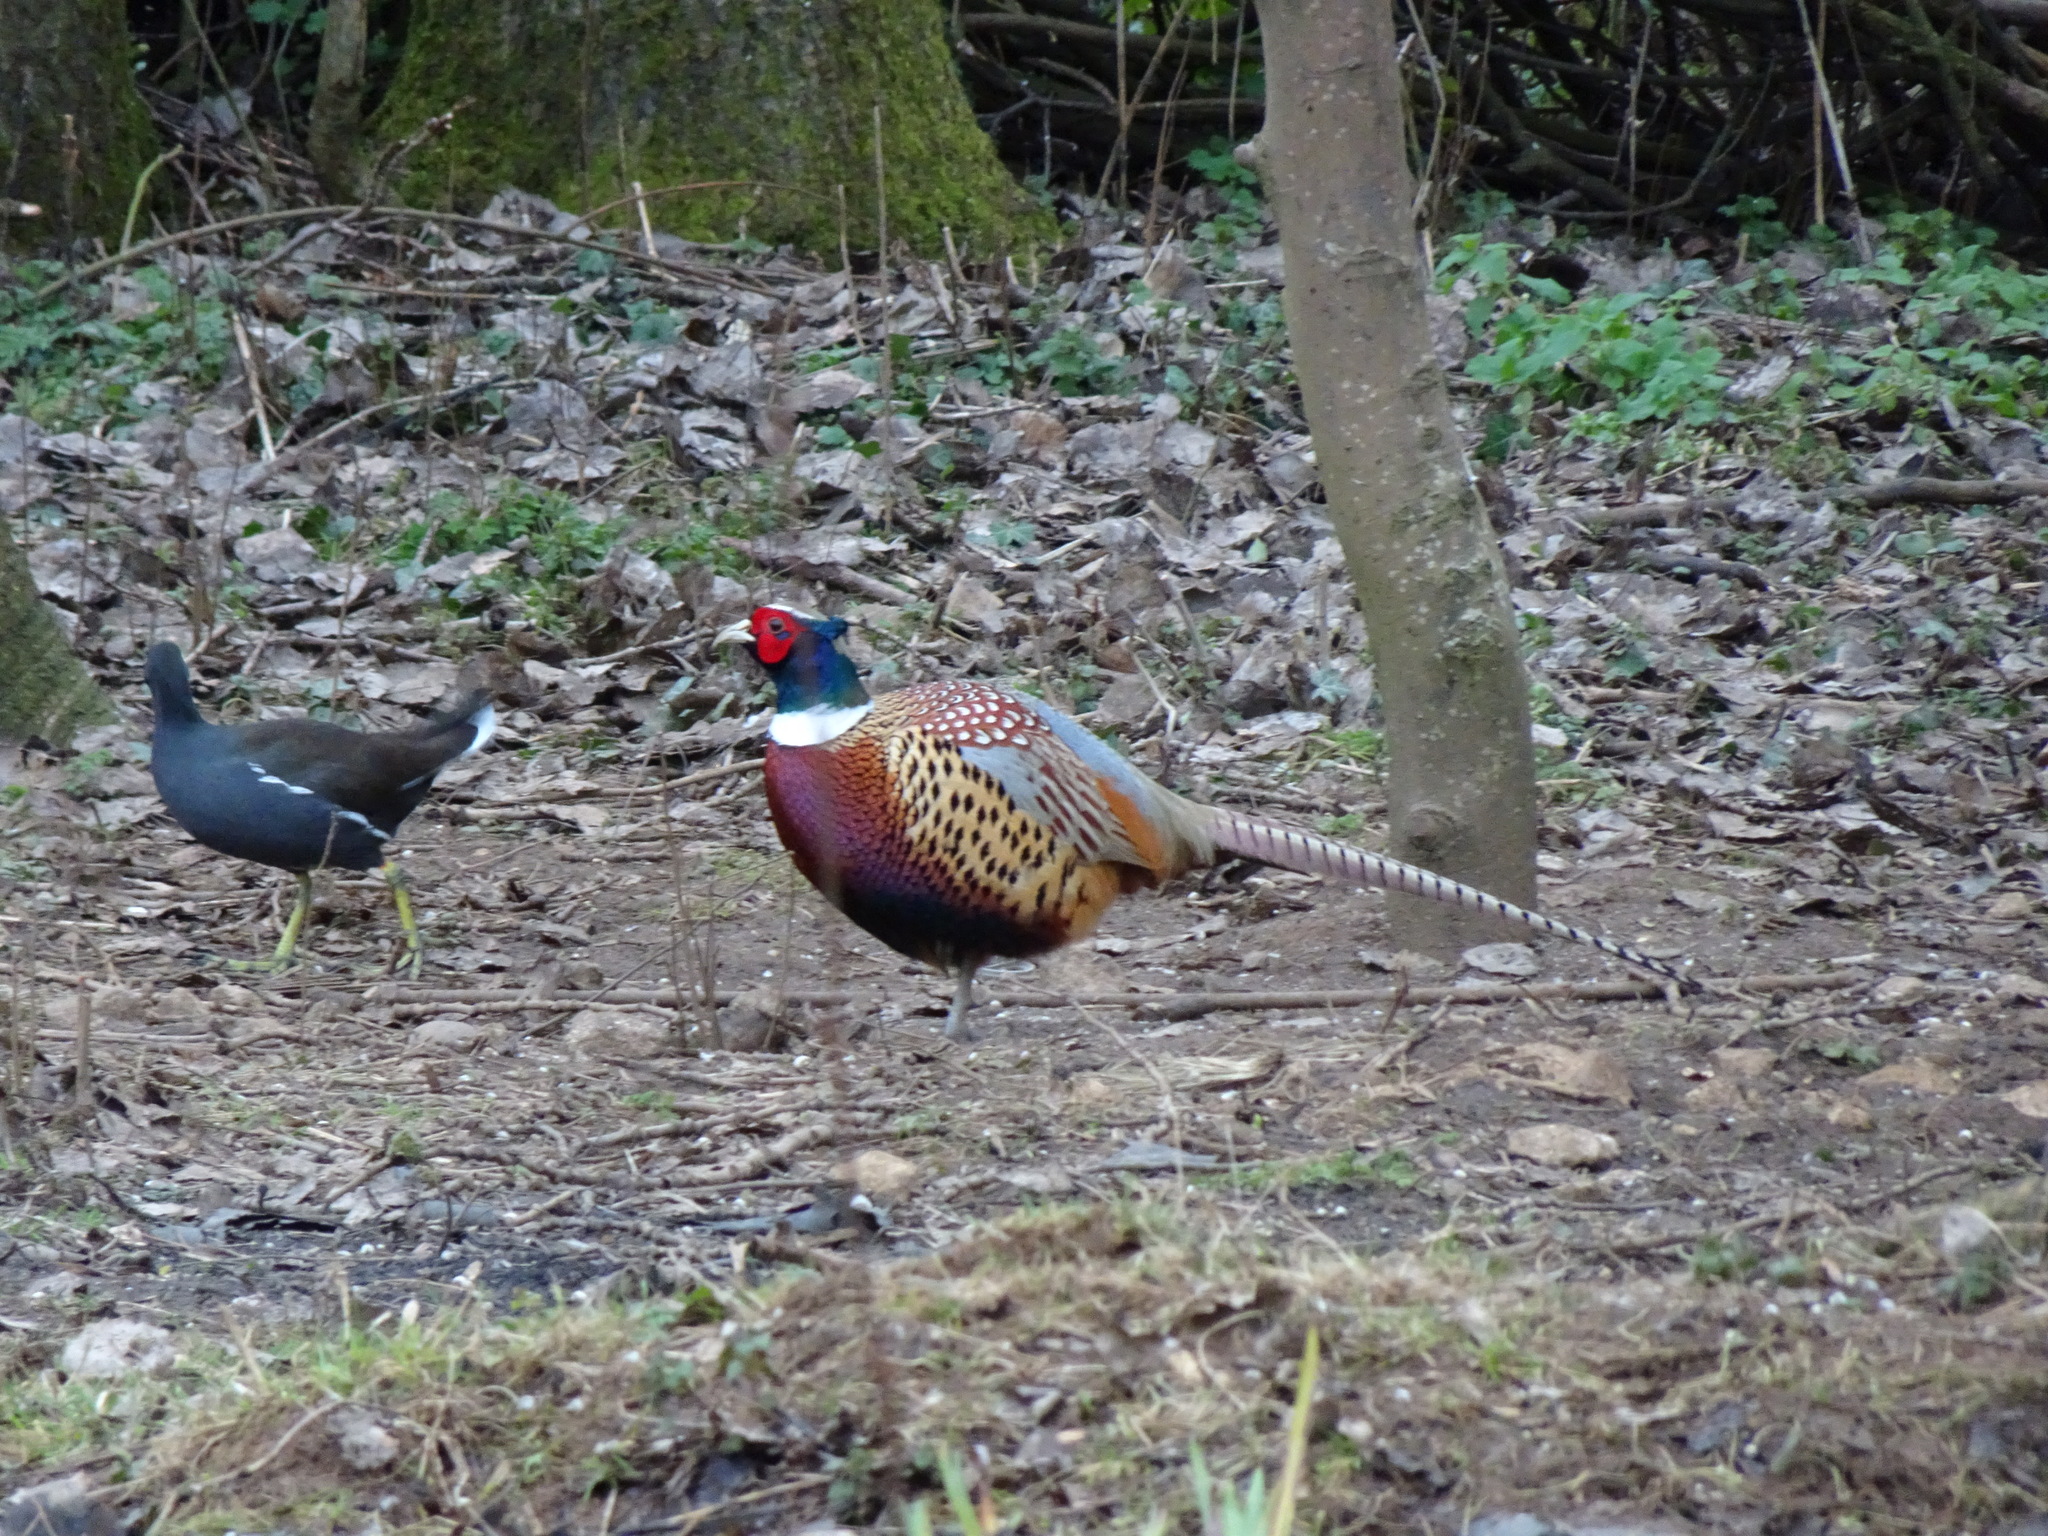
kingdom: Animalia
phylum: Chordata
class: Aves
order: Galliformes
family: Phasianidae
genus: Phasianus
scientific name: Phasianus colchicus
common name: Common pheasant
